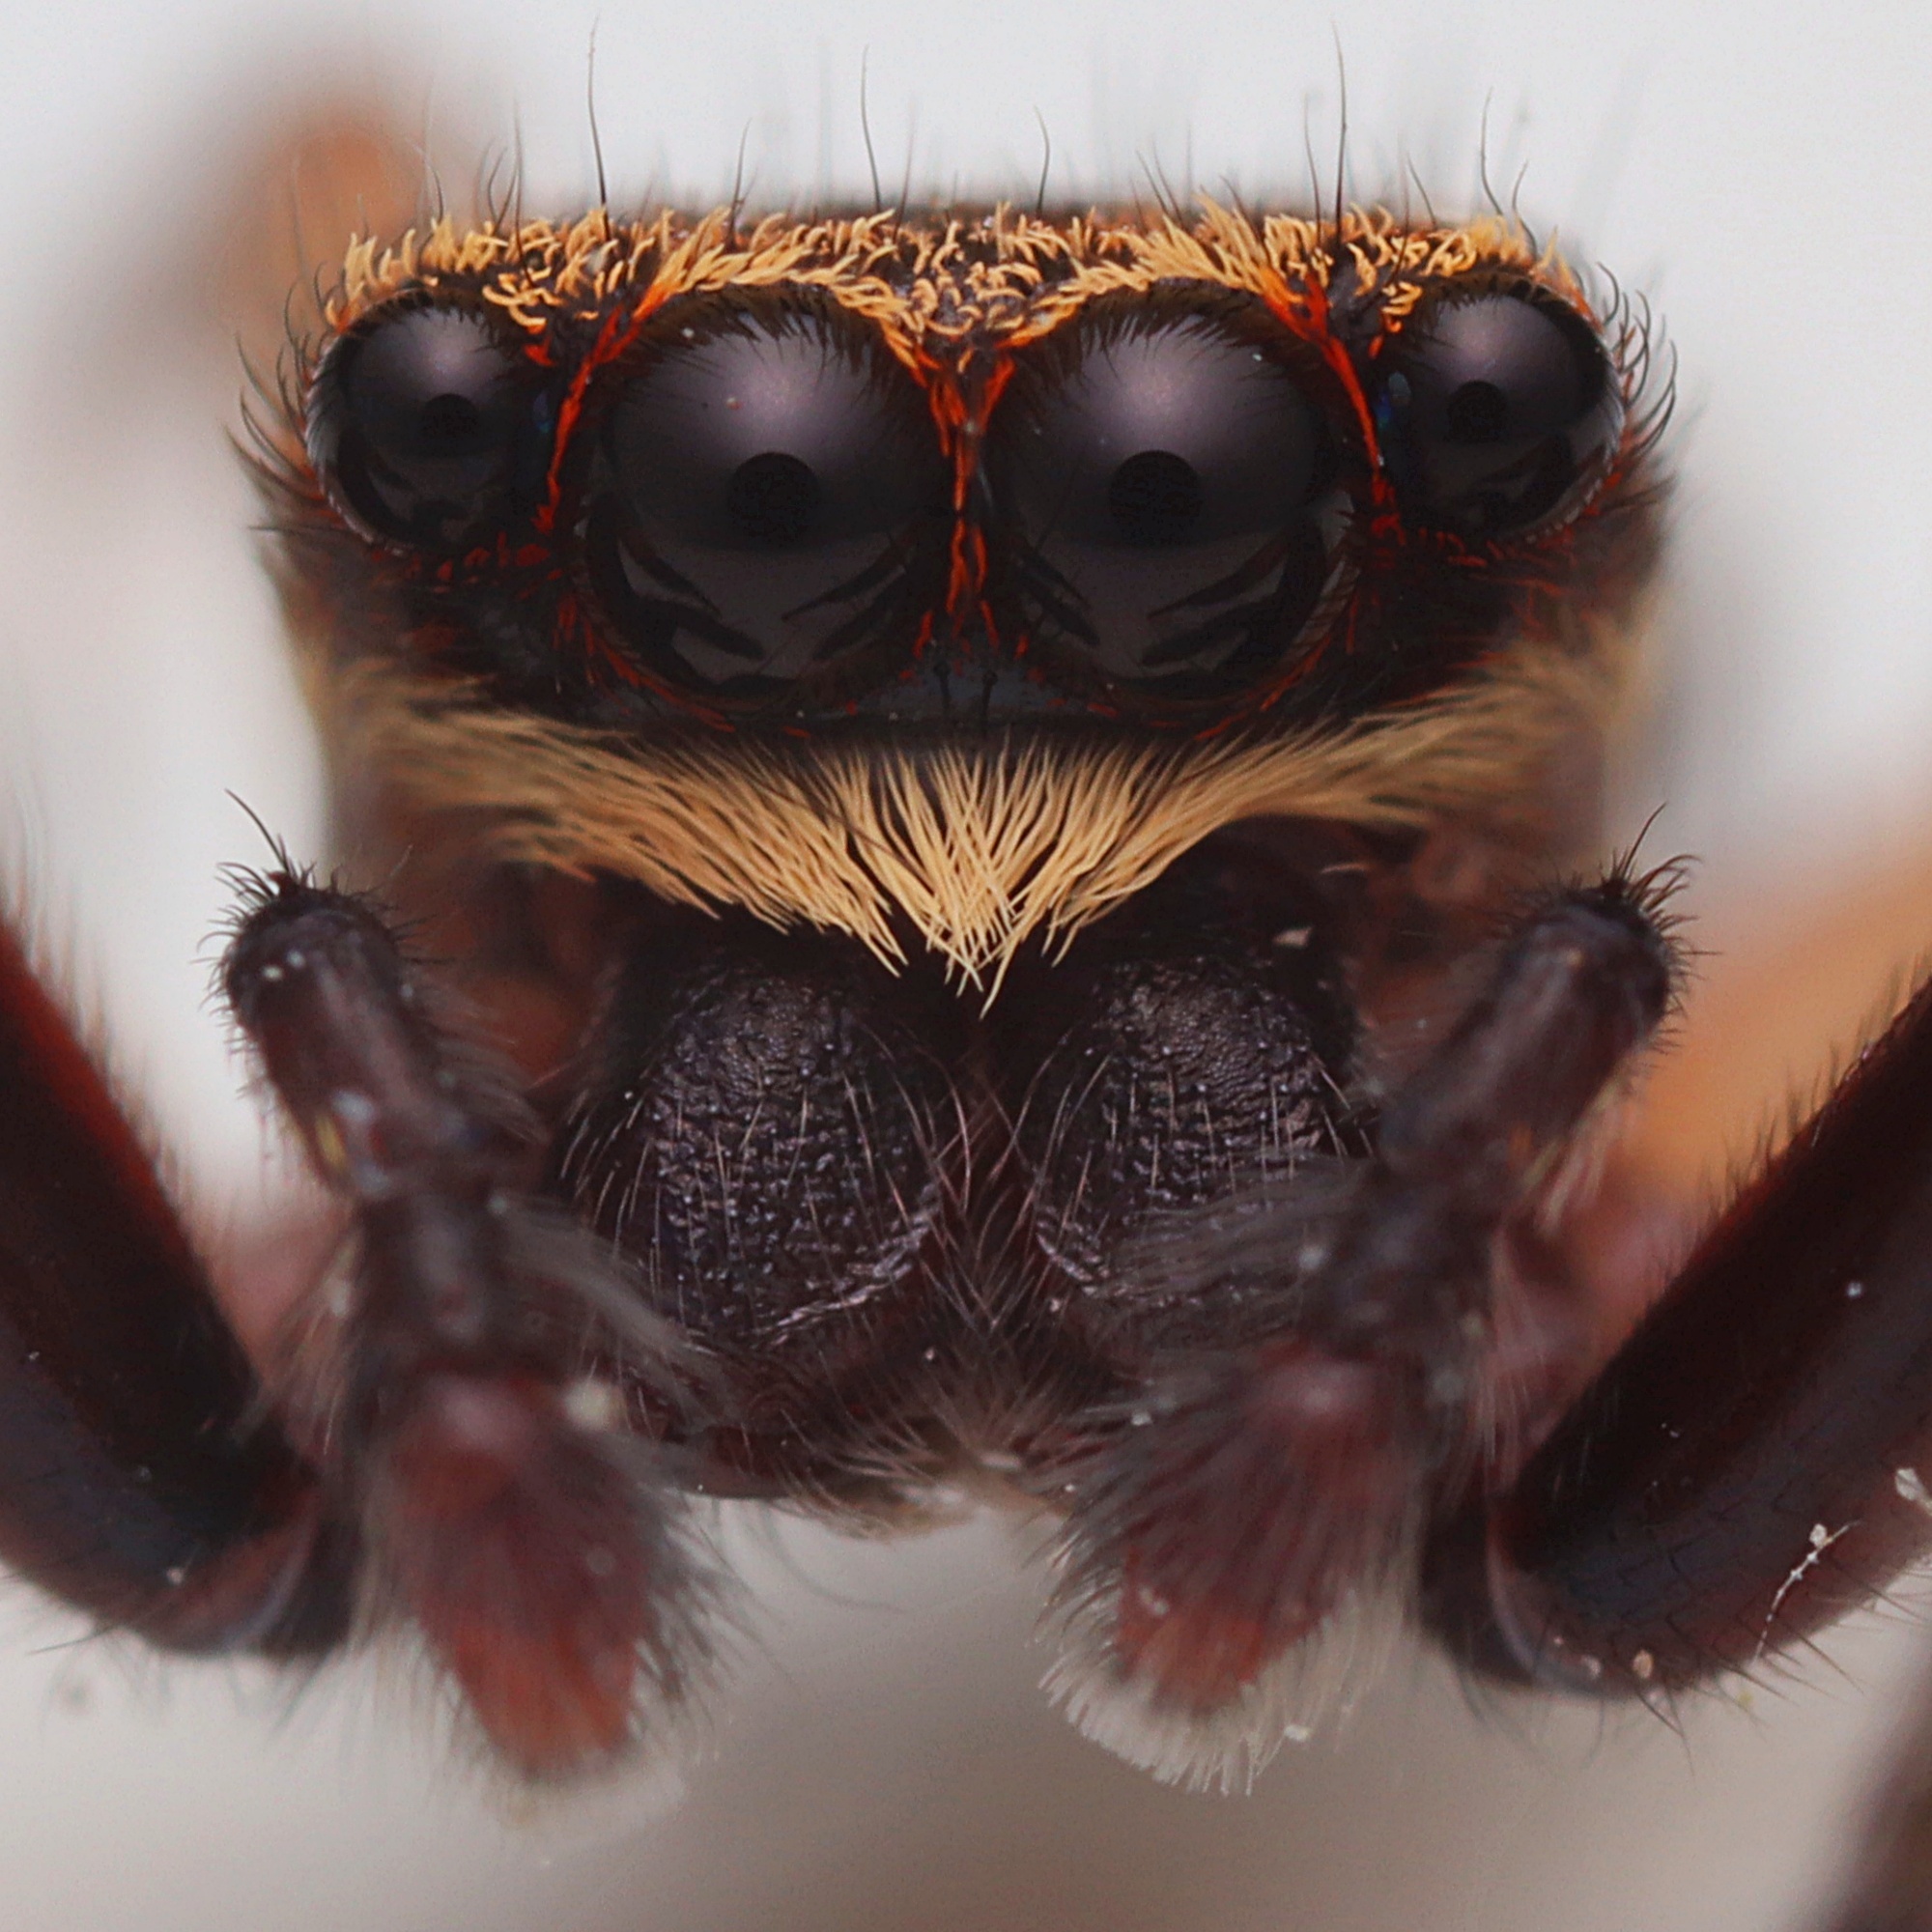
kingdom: Animalia
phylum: Arthropoda
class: Arachnida
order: Araneae
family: Salticidae
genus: Trite
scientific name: Trite auricoma
